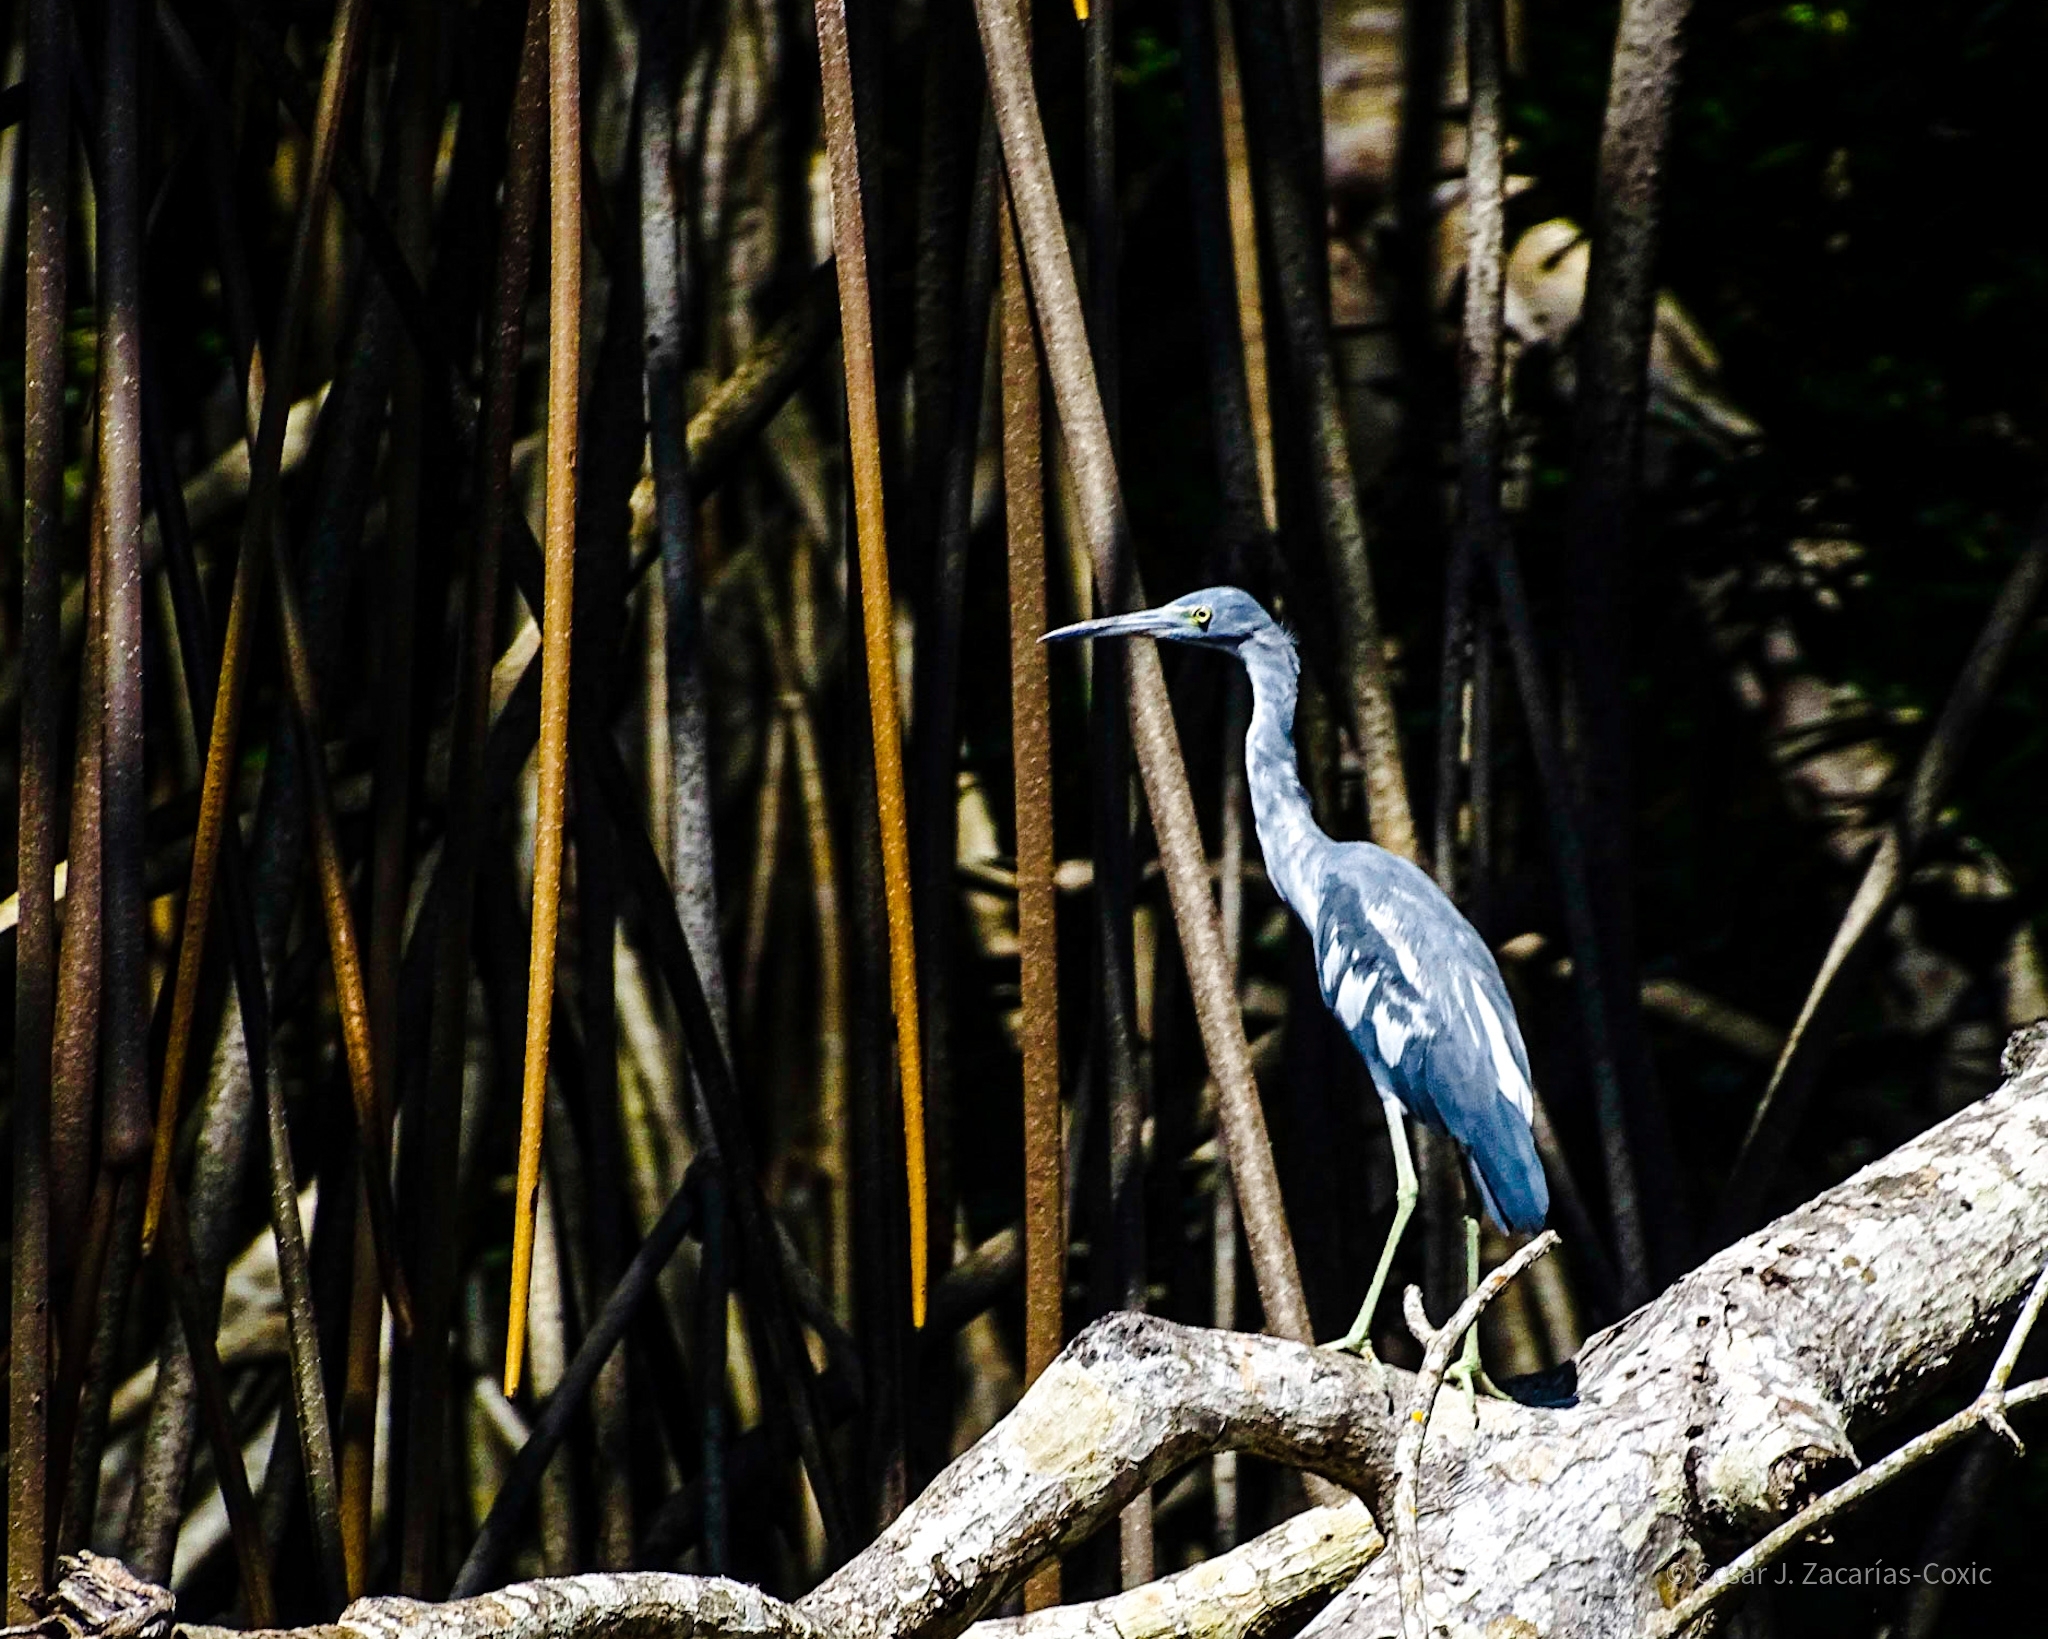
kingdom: Animalia
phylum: Chordata
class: Aves
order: Pelecaniformes
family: Ardeidae
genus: Egretta
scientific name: Egretta caerulea
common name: Little blue heron
